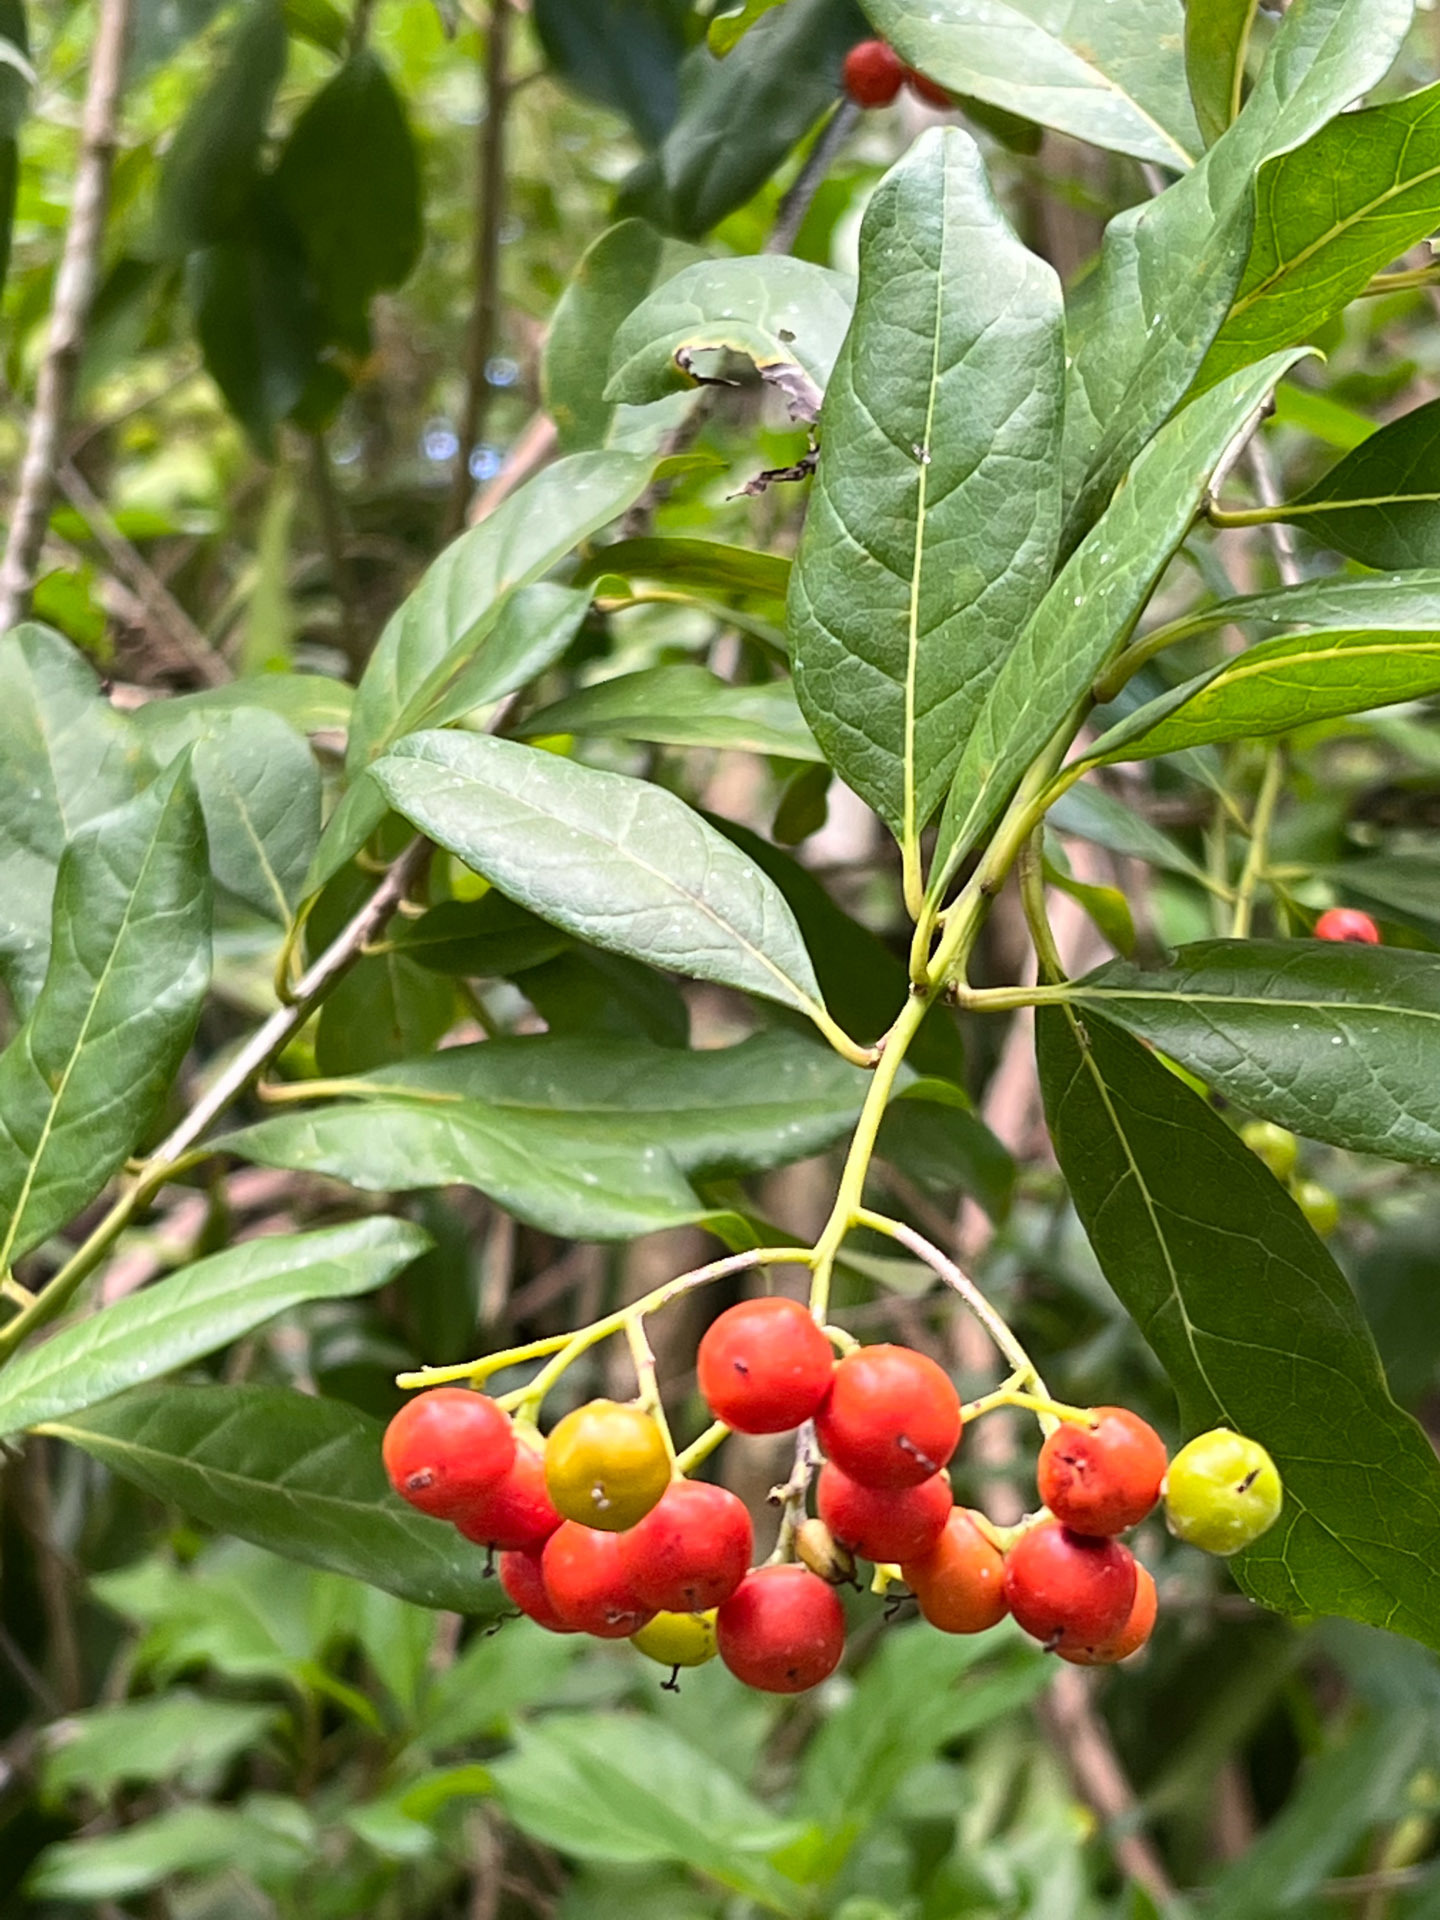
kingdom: Plantae
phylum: Tracheophyta
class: Magnoliopsida
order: Boraginales
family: Ehretiaceae
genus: Bourreria
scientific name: Bourreria succulenta
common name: Cherry
